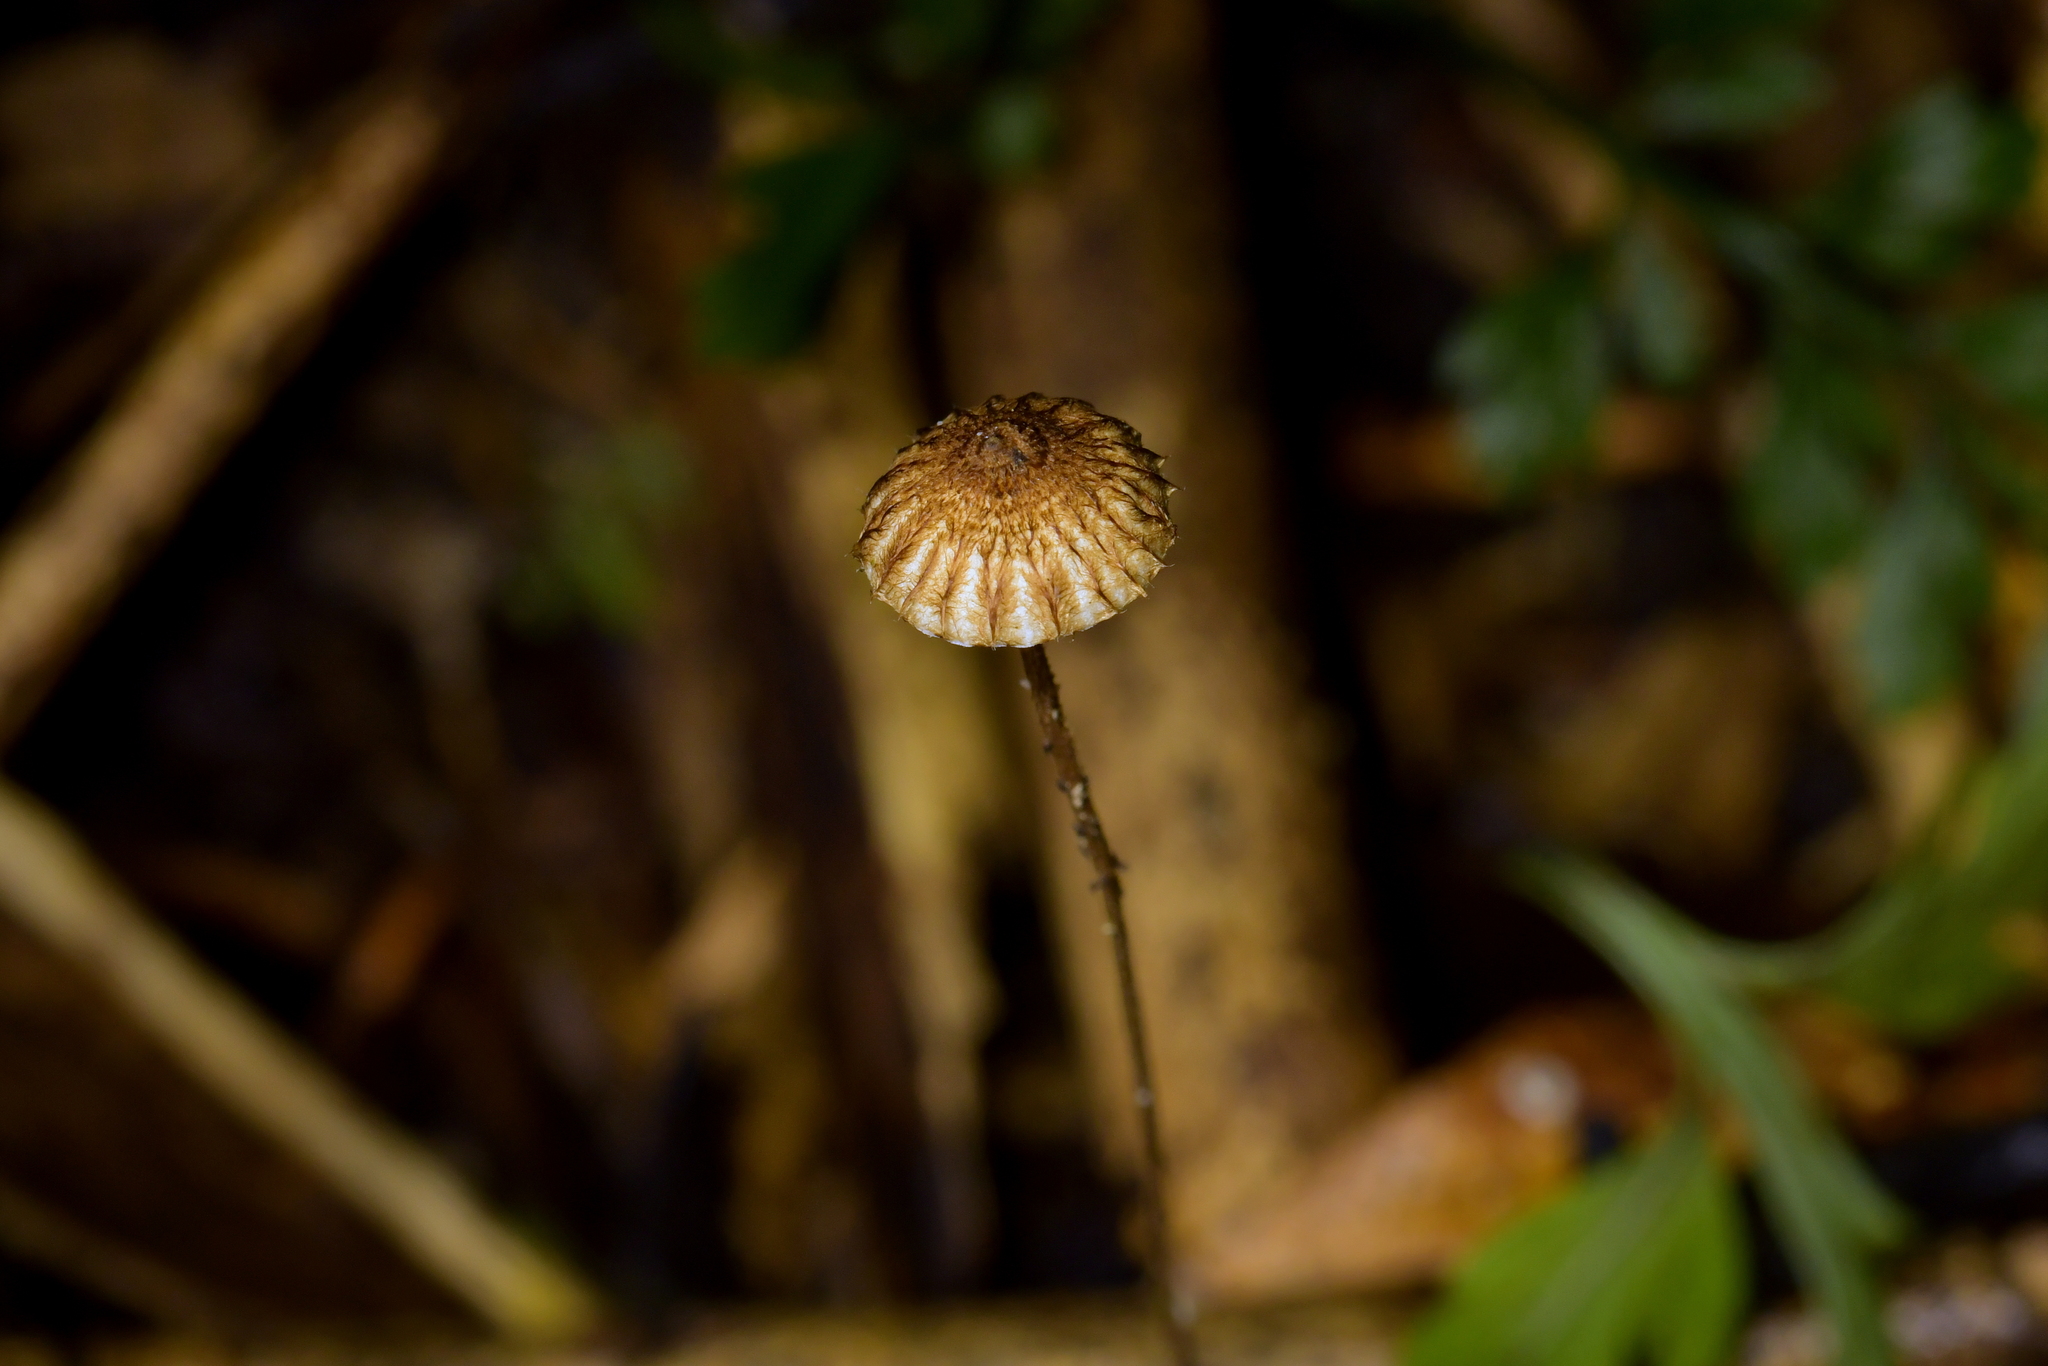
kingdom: Fungi
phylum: Basidiomycota
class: Agaricomycetes
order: Agaricales
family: Marasmiaceae
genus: Crinipellis
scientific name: Crinipellis procera
